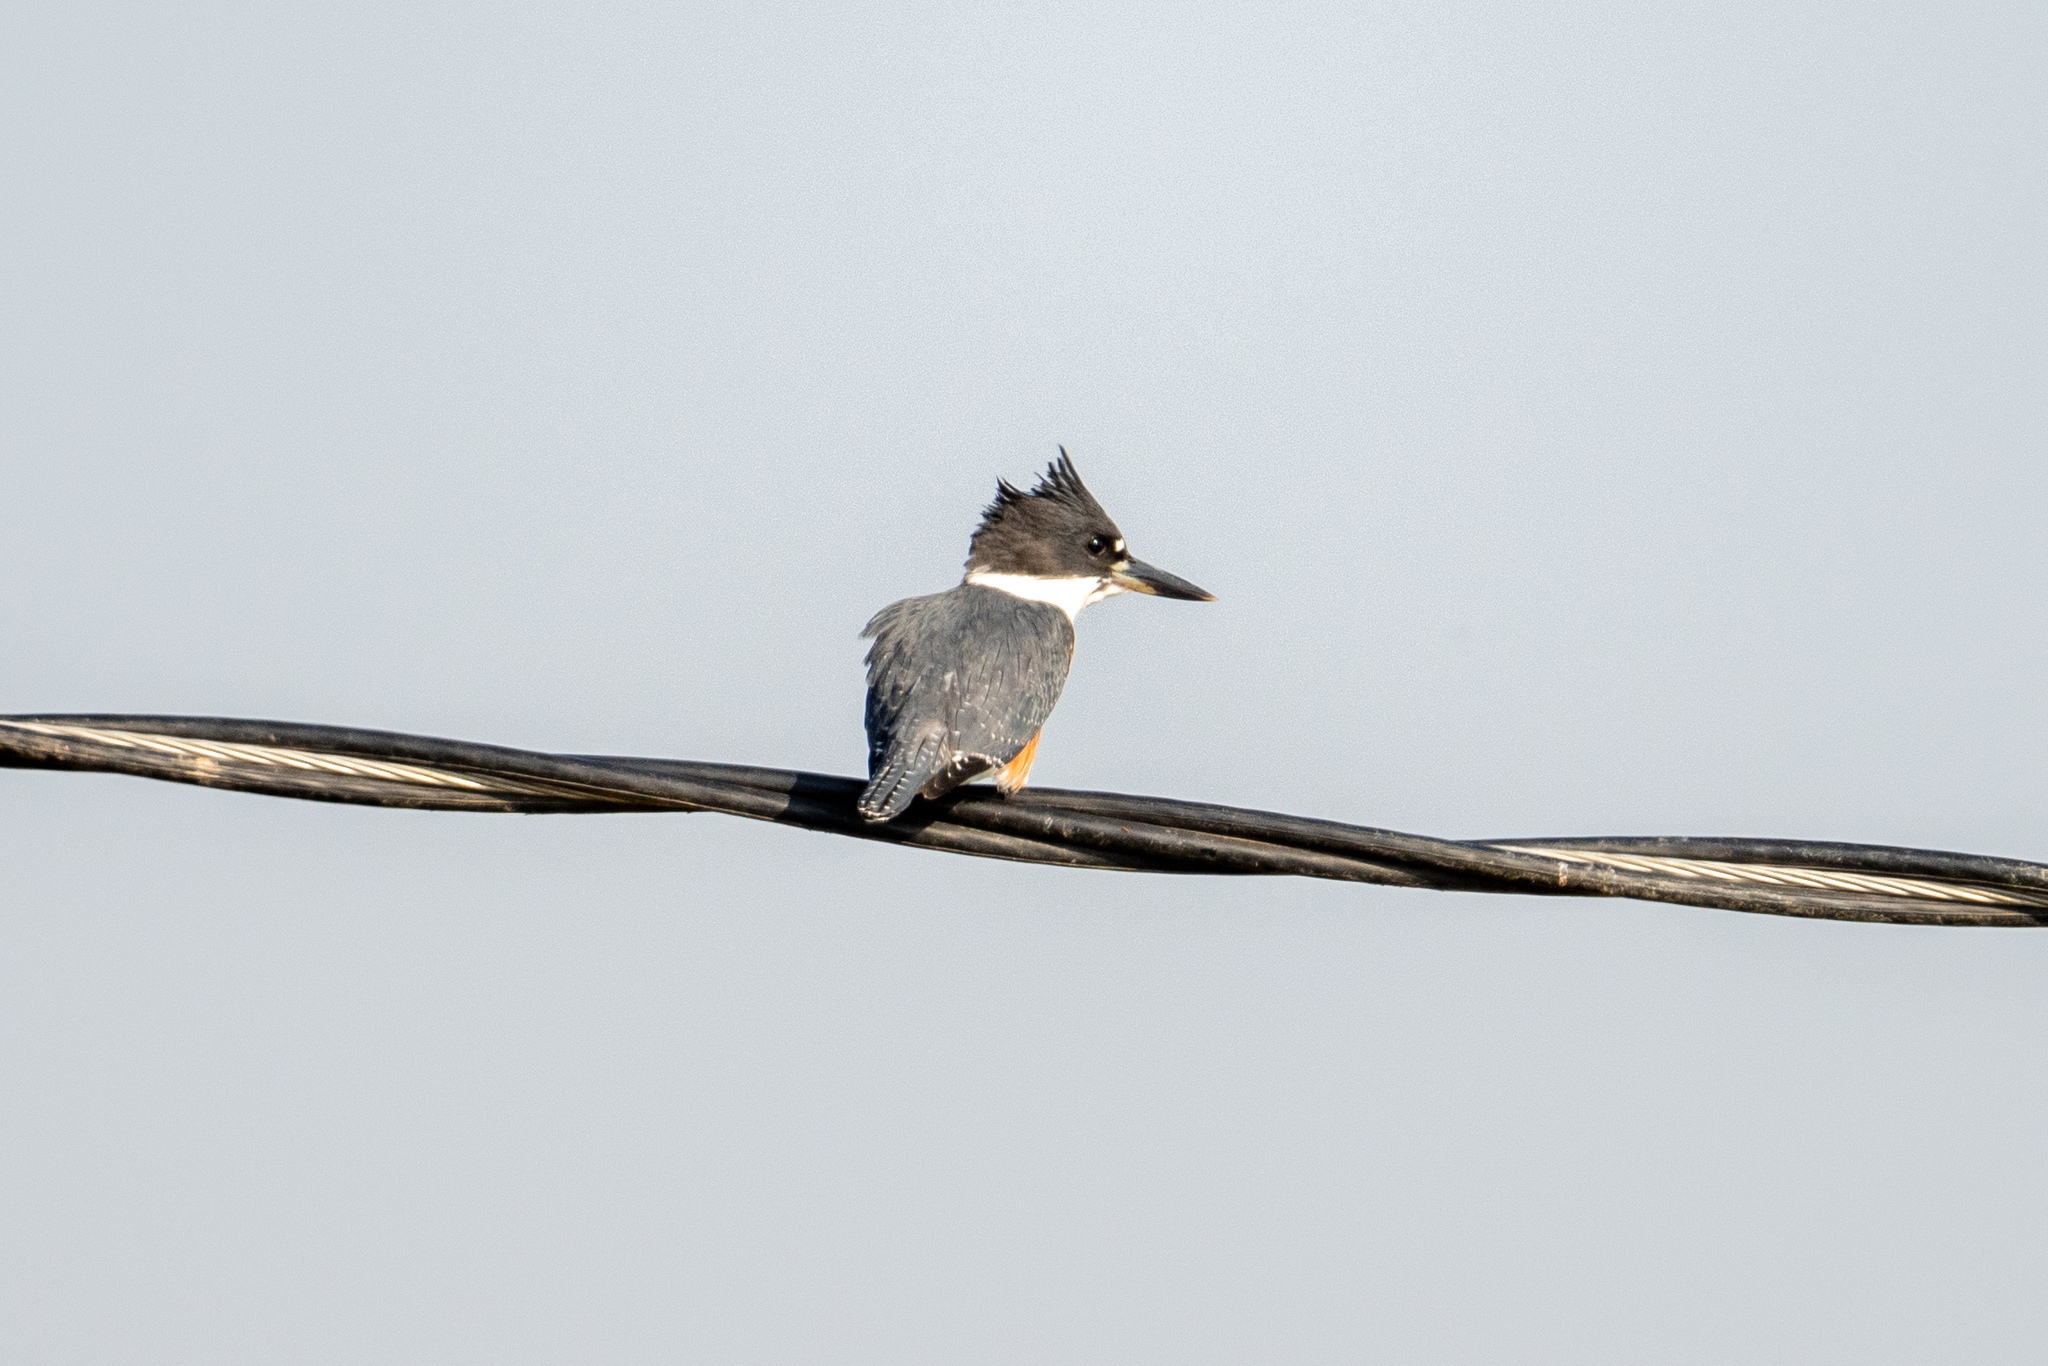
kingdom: Animalia
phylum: Chordata
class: Aves
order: Coraciiformes
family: Alcedinidae
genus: Megaceryle
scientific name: Megaceryle alcyon
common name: Belted kingfisher
